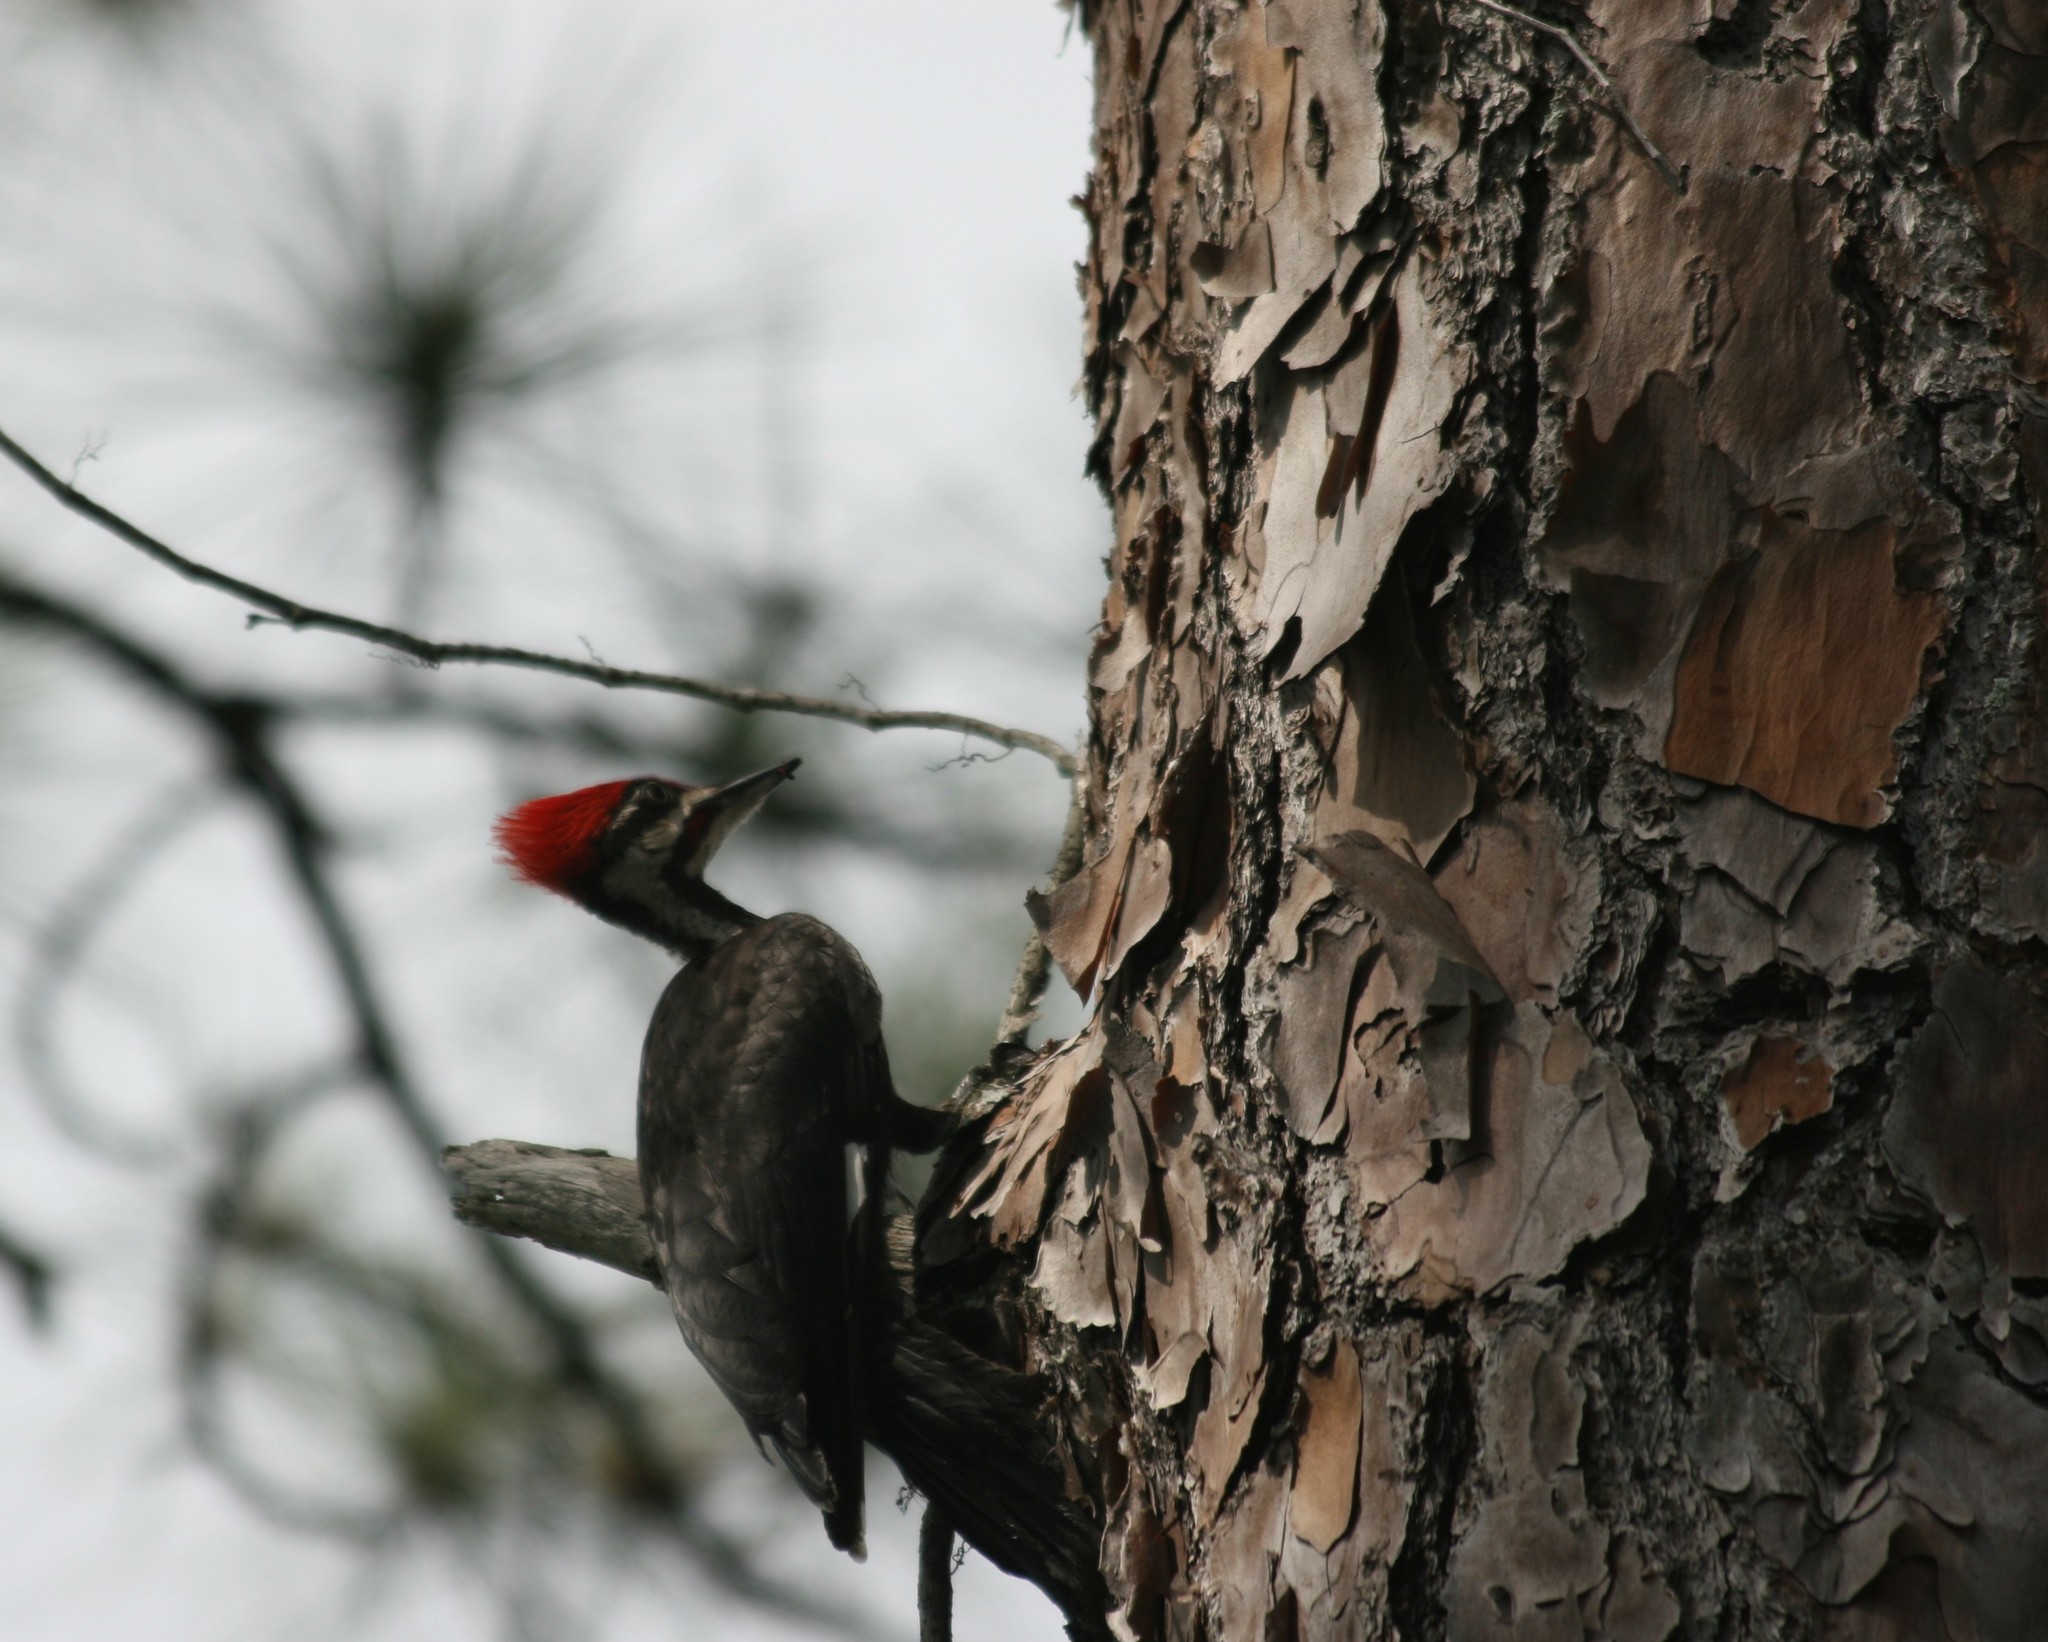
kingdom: Animalia
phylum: Chordata
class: Aves
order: Piciformes
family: Picidae
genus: Dryocopus
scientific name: Dryocopus pileatus
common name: Pileated woodpecker
